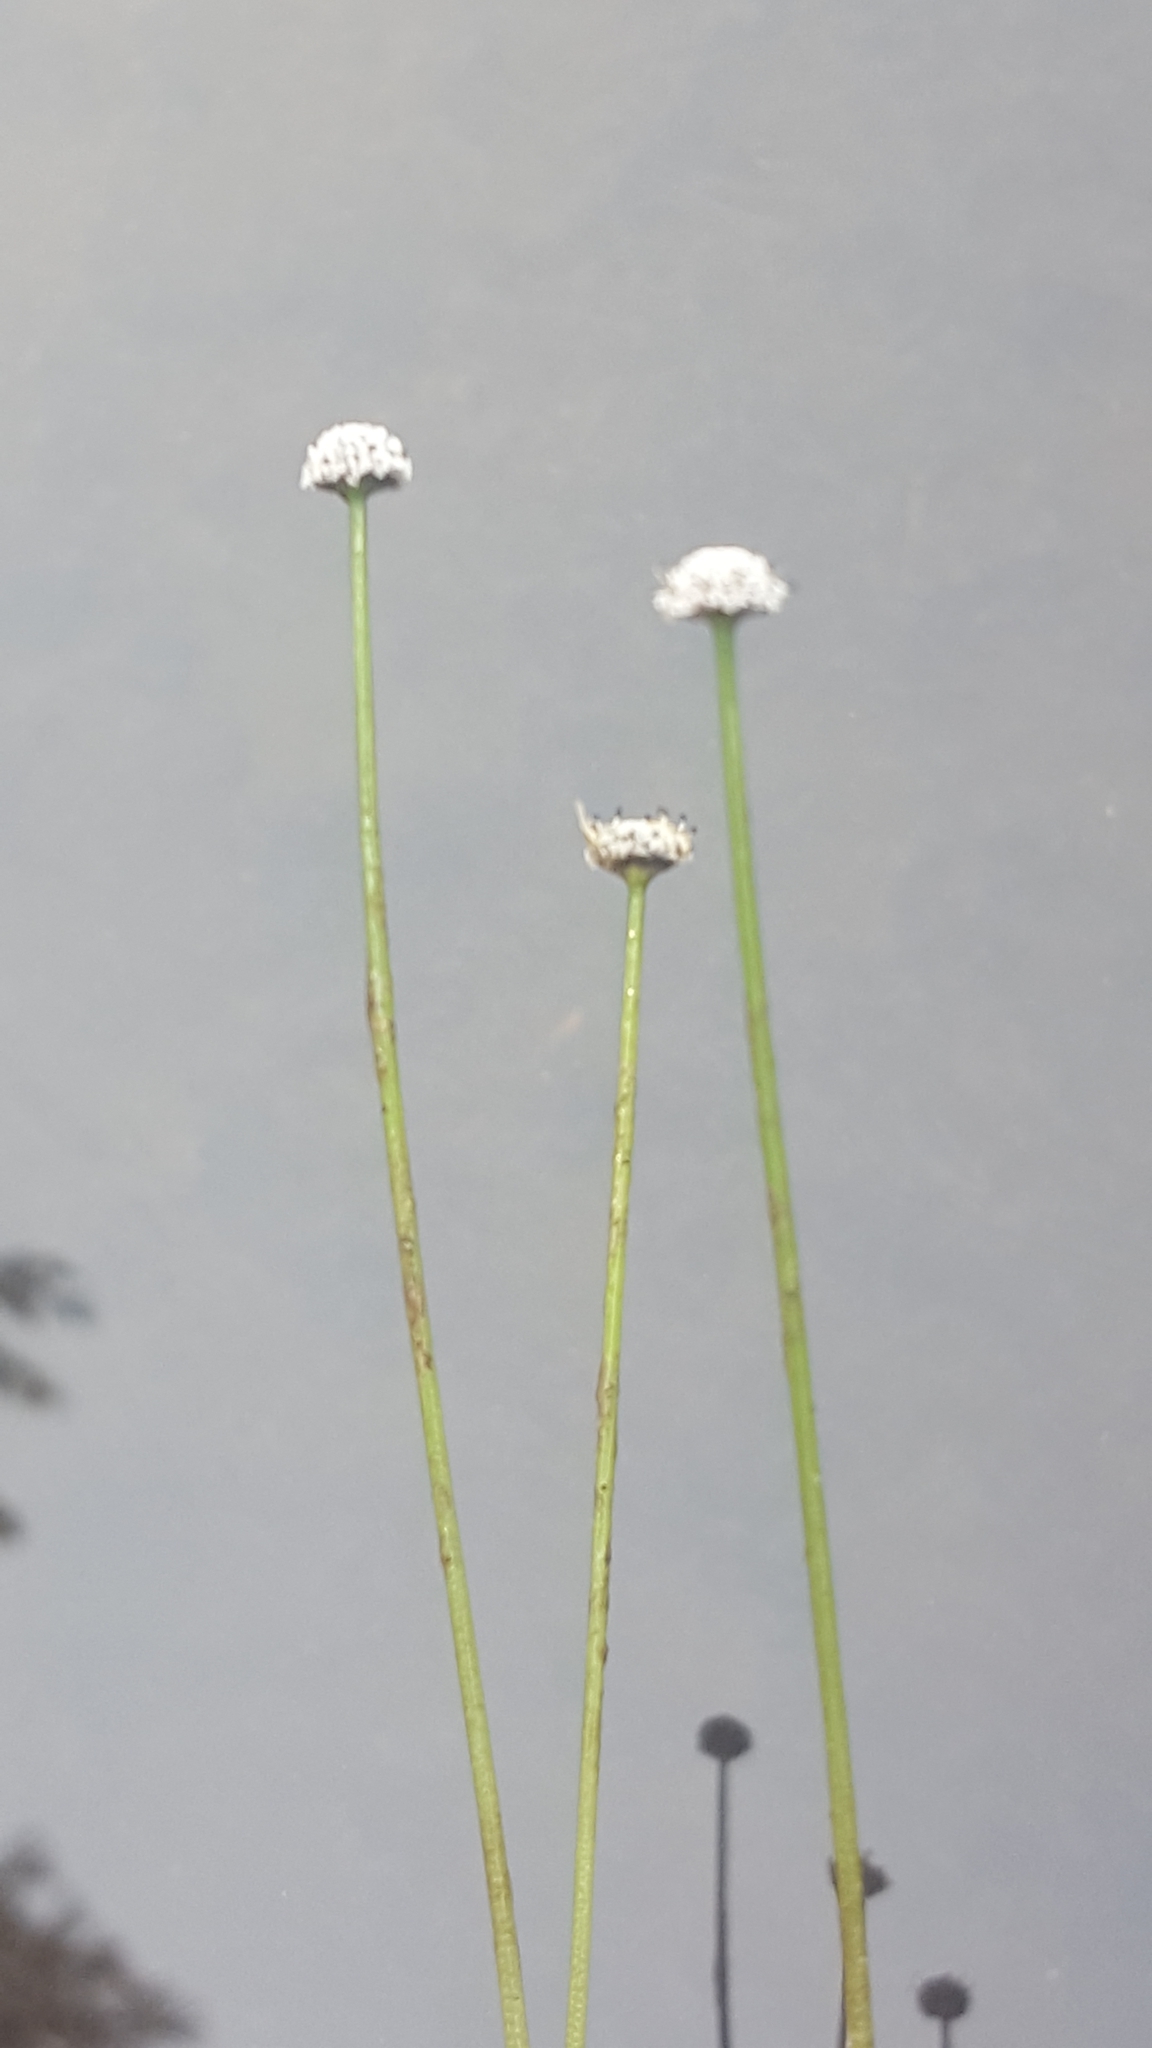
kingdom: Plantae
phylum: Tracheophyta
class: Liliopsida
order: Poales
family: Eriocaulaceae
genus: Eriocaulon
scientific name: Eriocaulon aquaticum
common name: Pipewort
